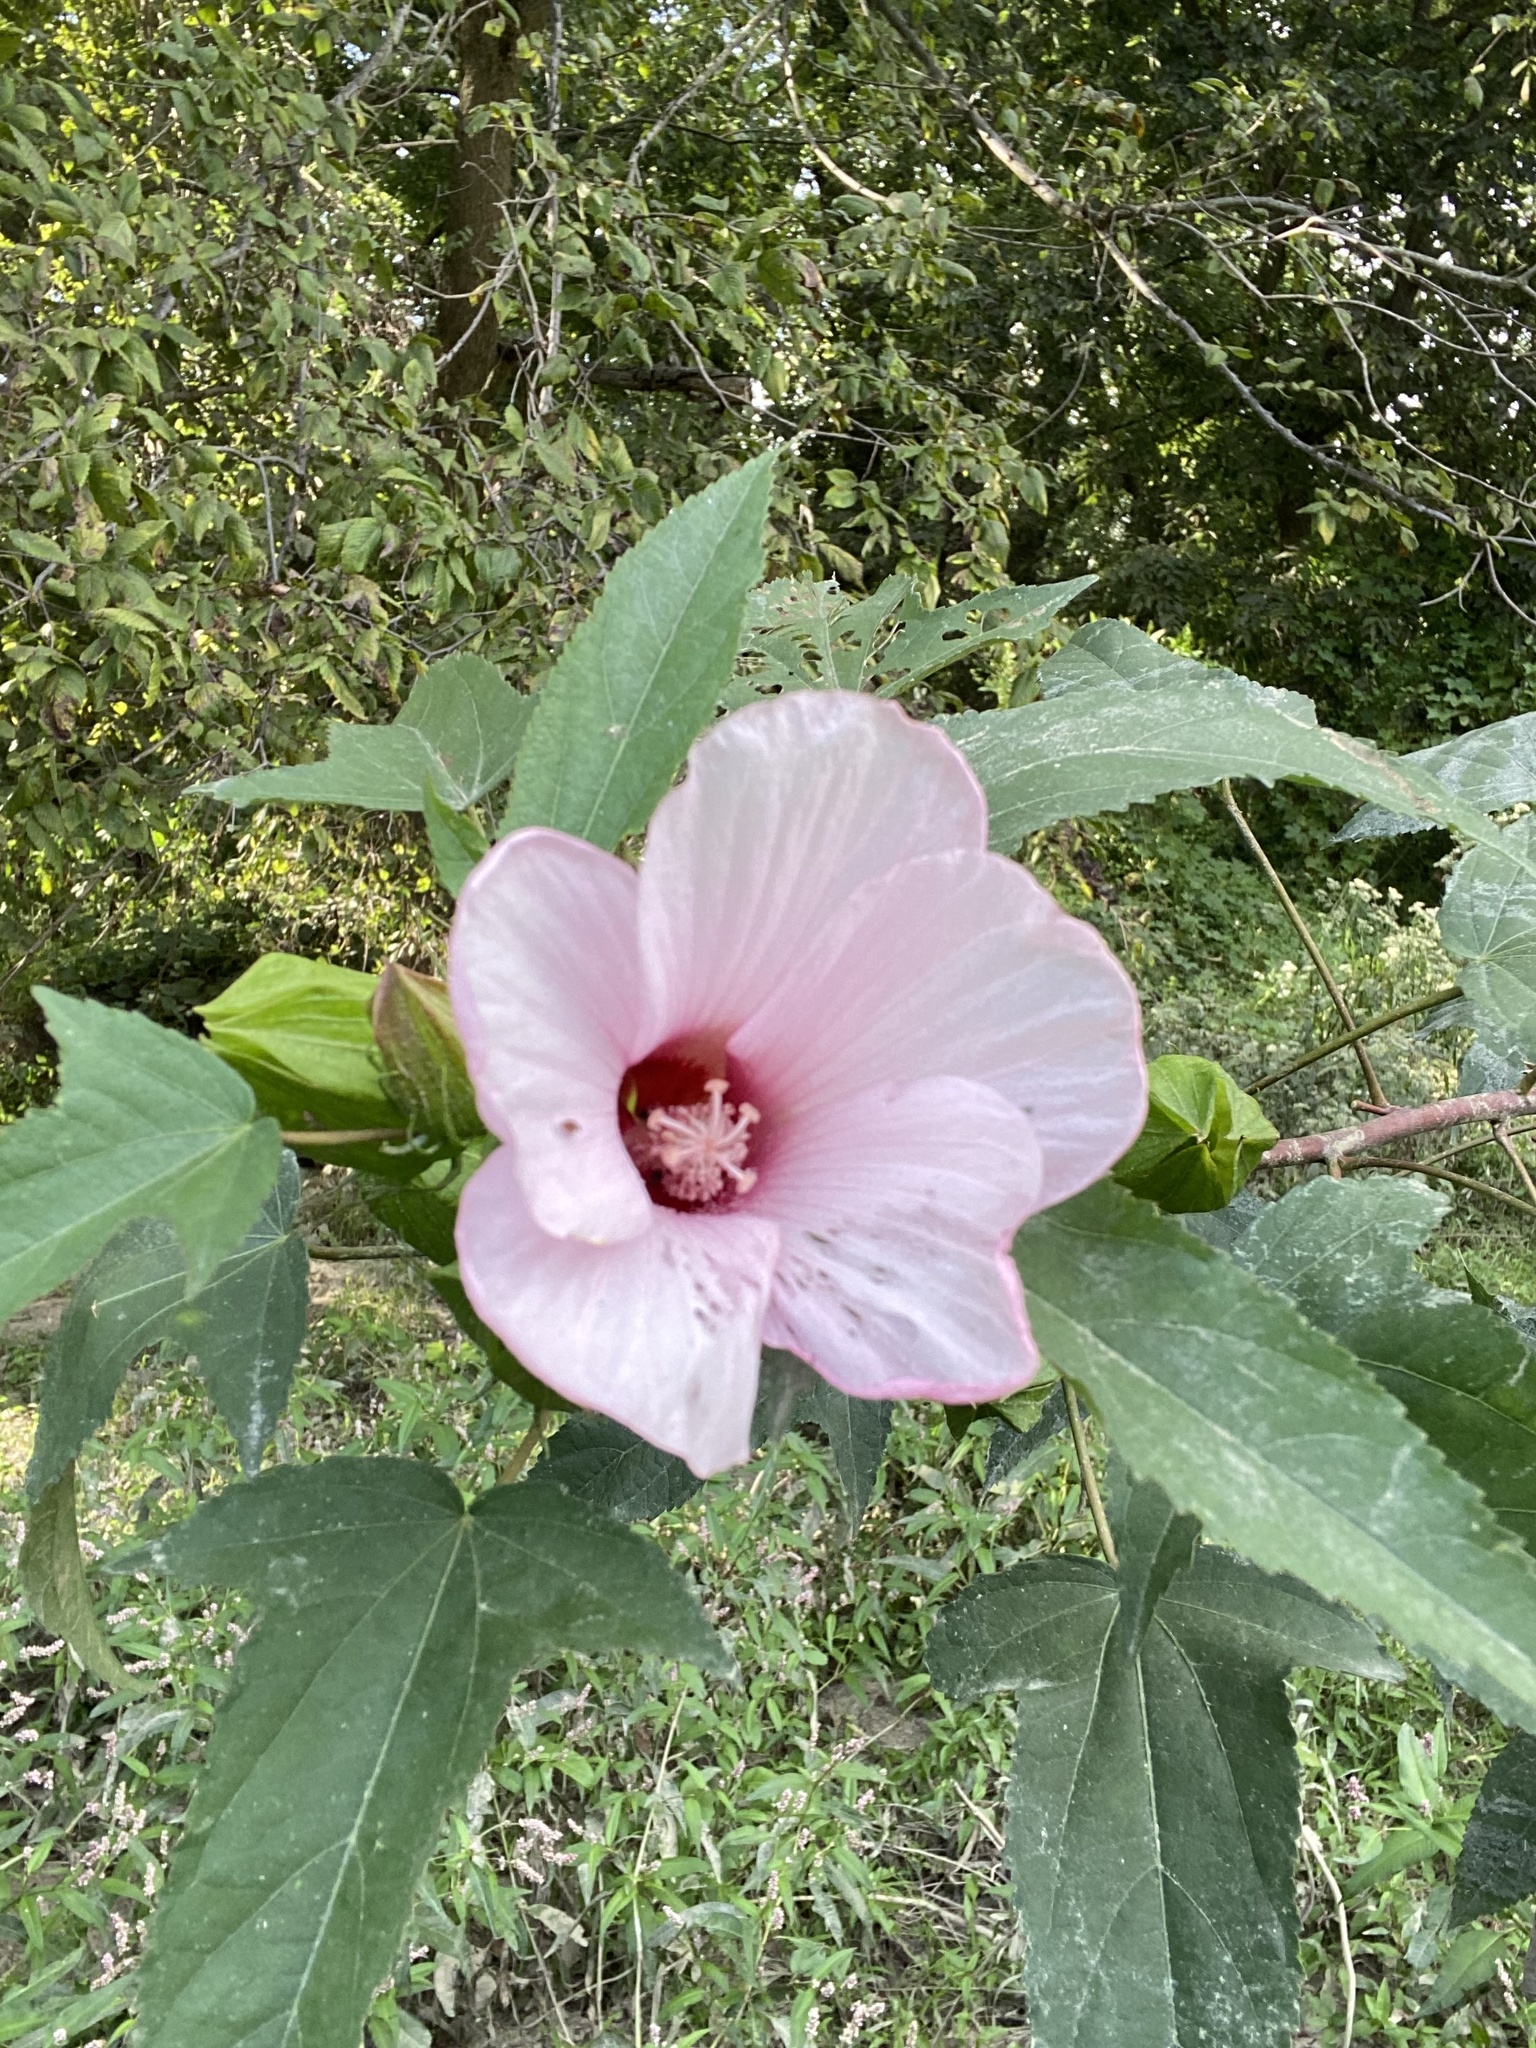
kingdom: Plantae
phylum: Tracheophyta
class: Magnoliopsida
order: Malvales
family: Malvaceae
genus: Hibiscus
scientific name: Hibiscus laevis
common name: Scarlet rose-mallow
